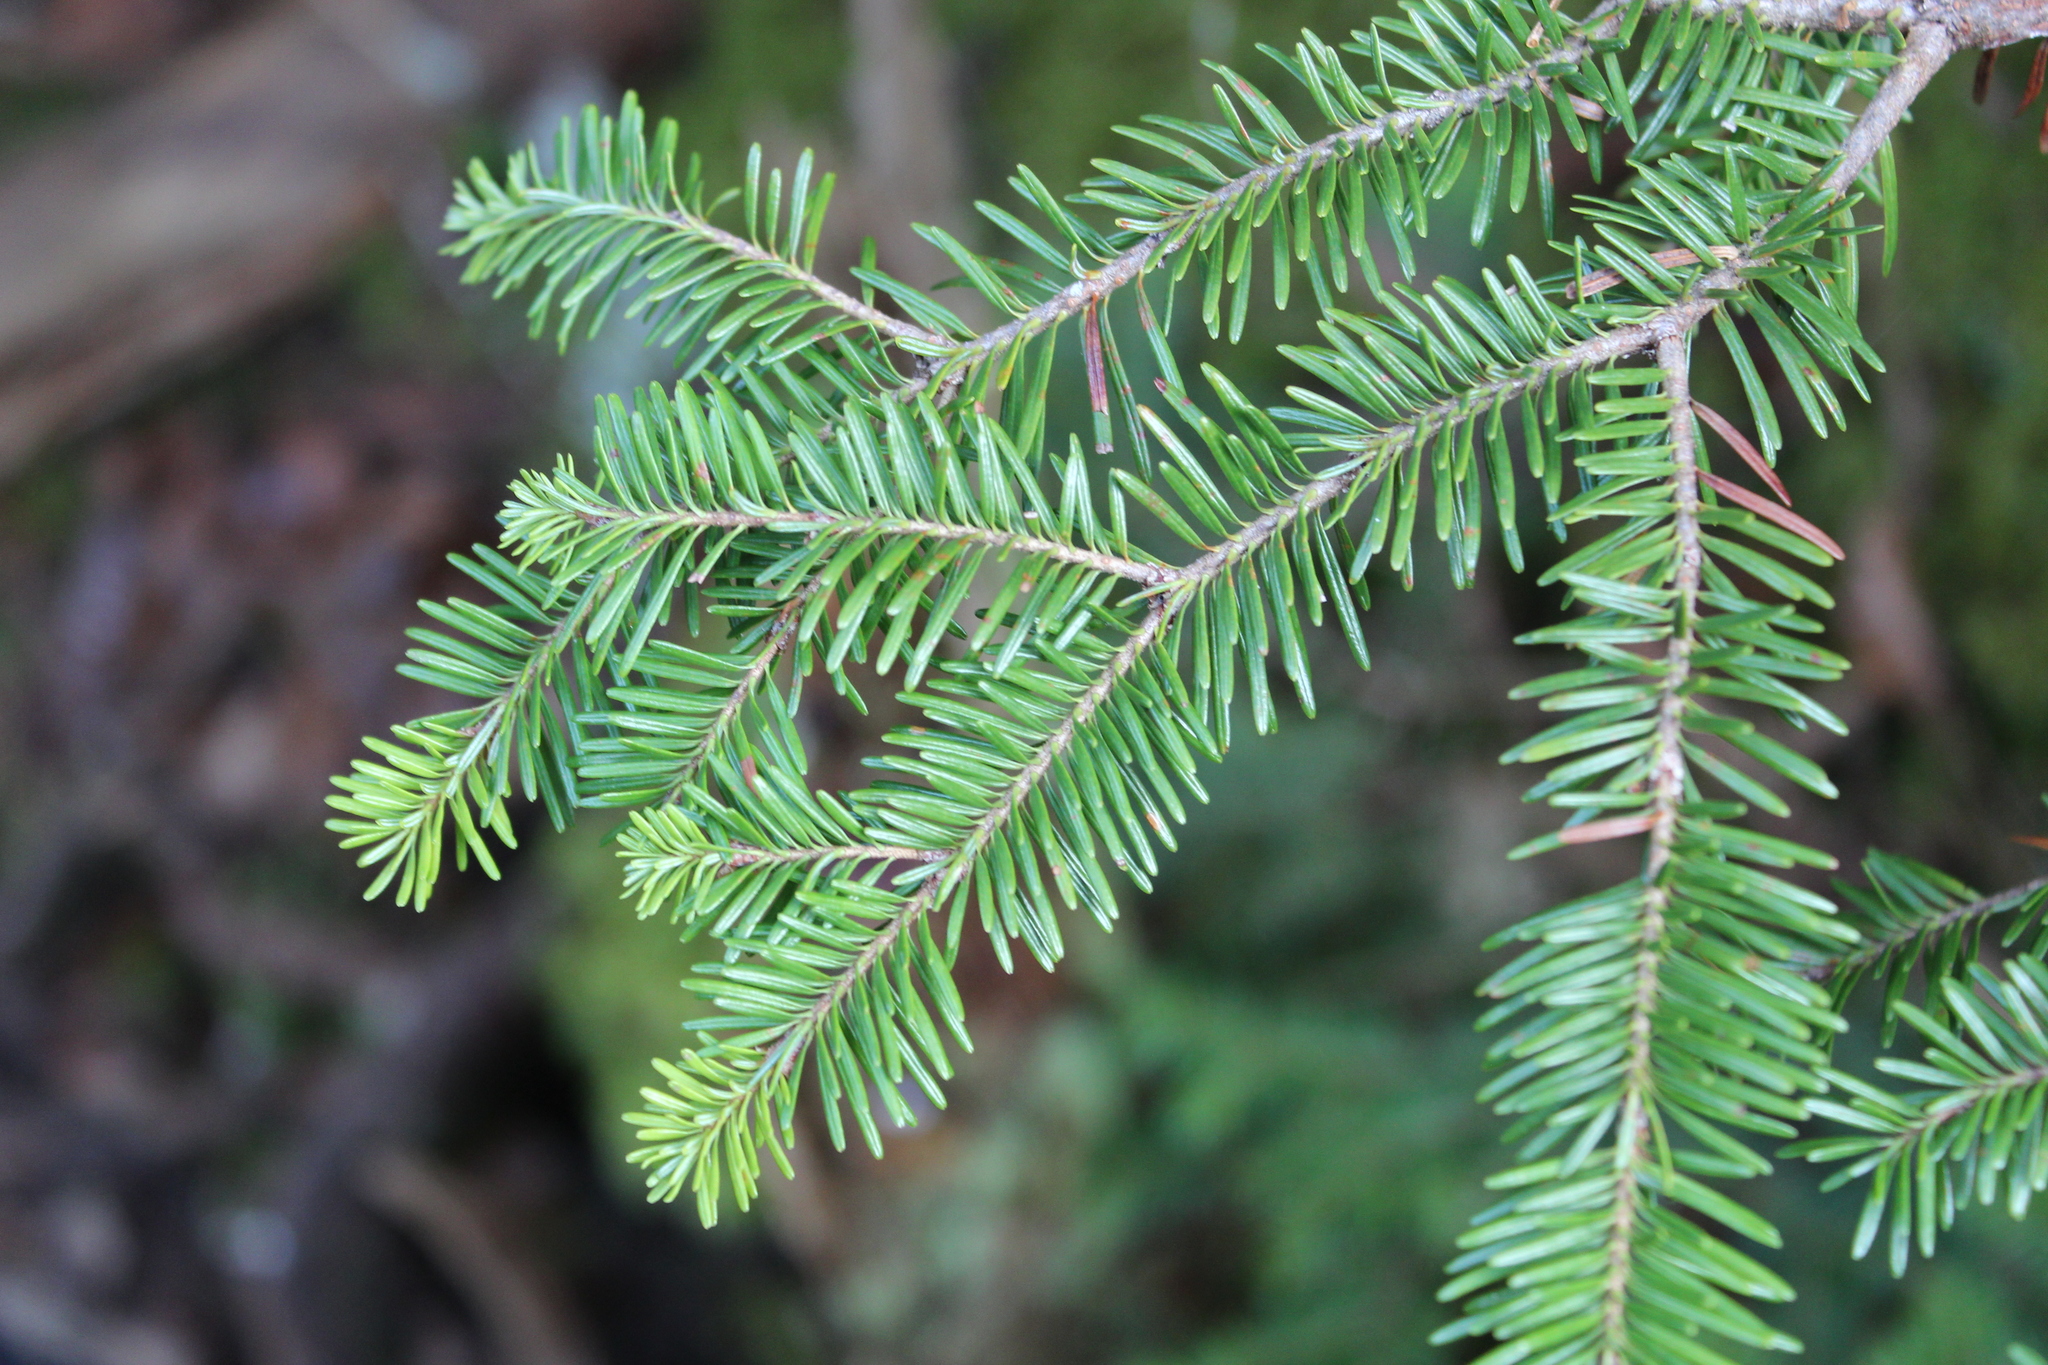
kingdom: Plantae
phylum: Tracheophyta
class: Pinopsida
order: Pinales
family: Pinaceae
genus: Abies
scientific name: Abies balsamea
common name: Balsam fir
